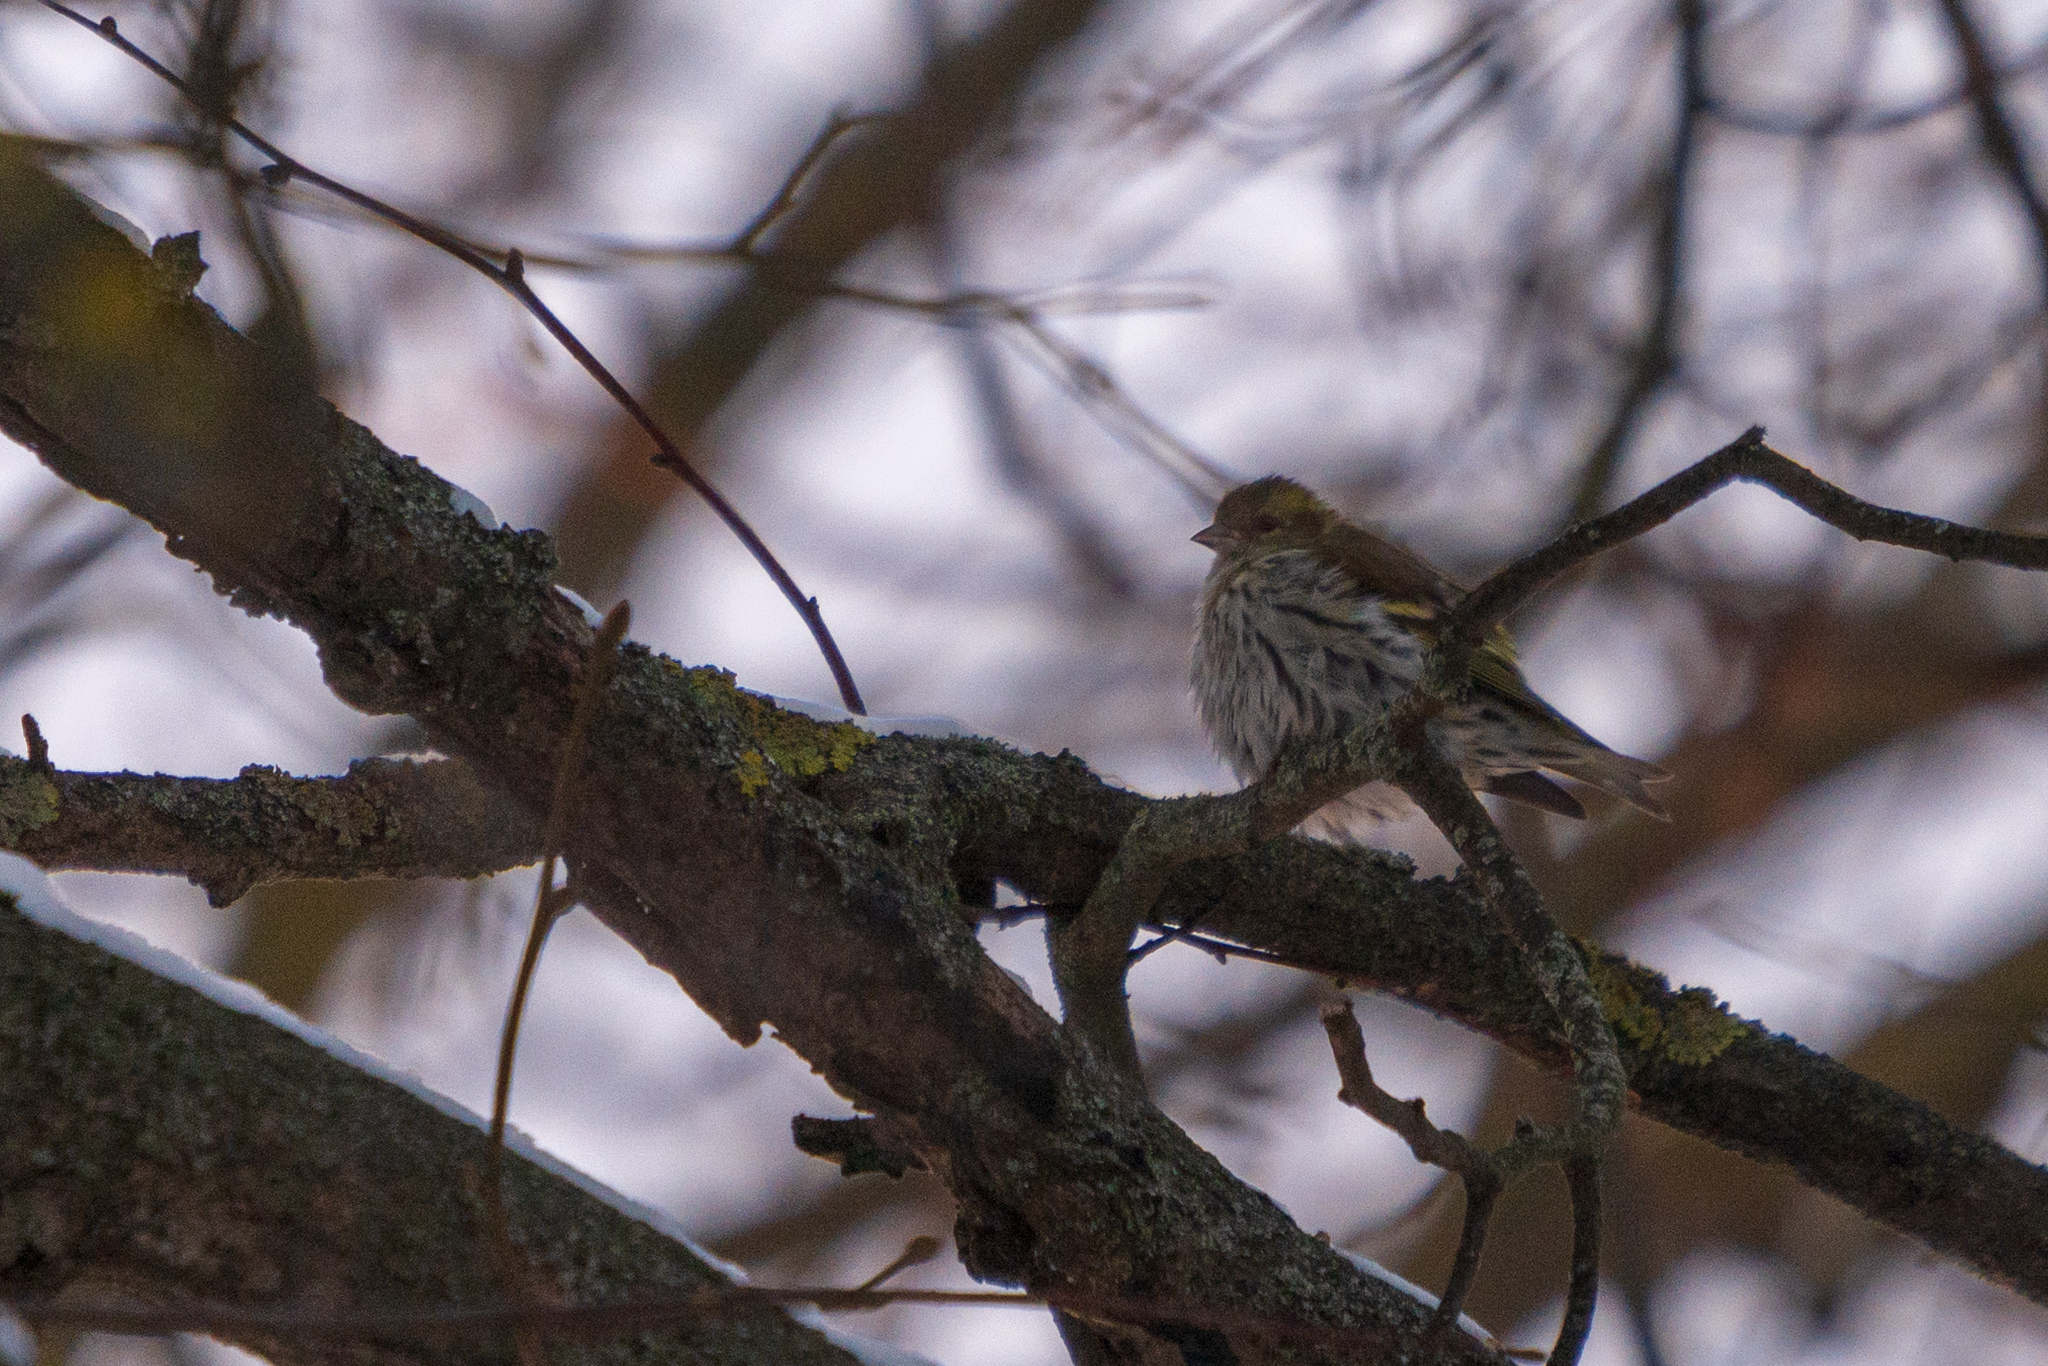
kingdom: Animalia
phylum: Chordata
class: Aves
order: Passeriformes
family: Fringillidae
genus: Spinus
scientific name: Spinus spinus
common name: Eurasian siskin
